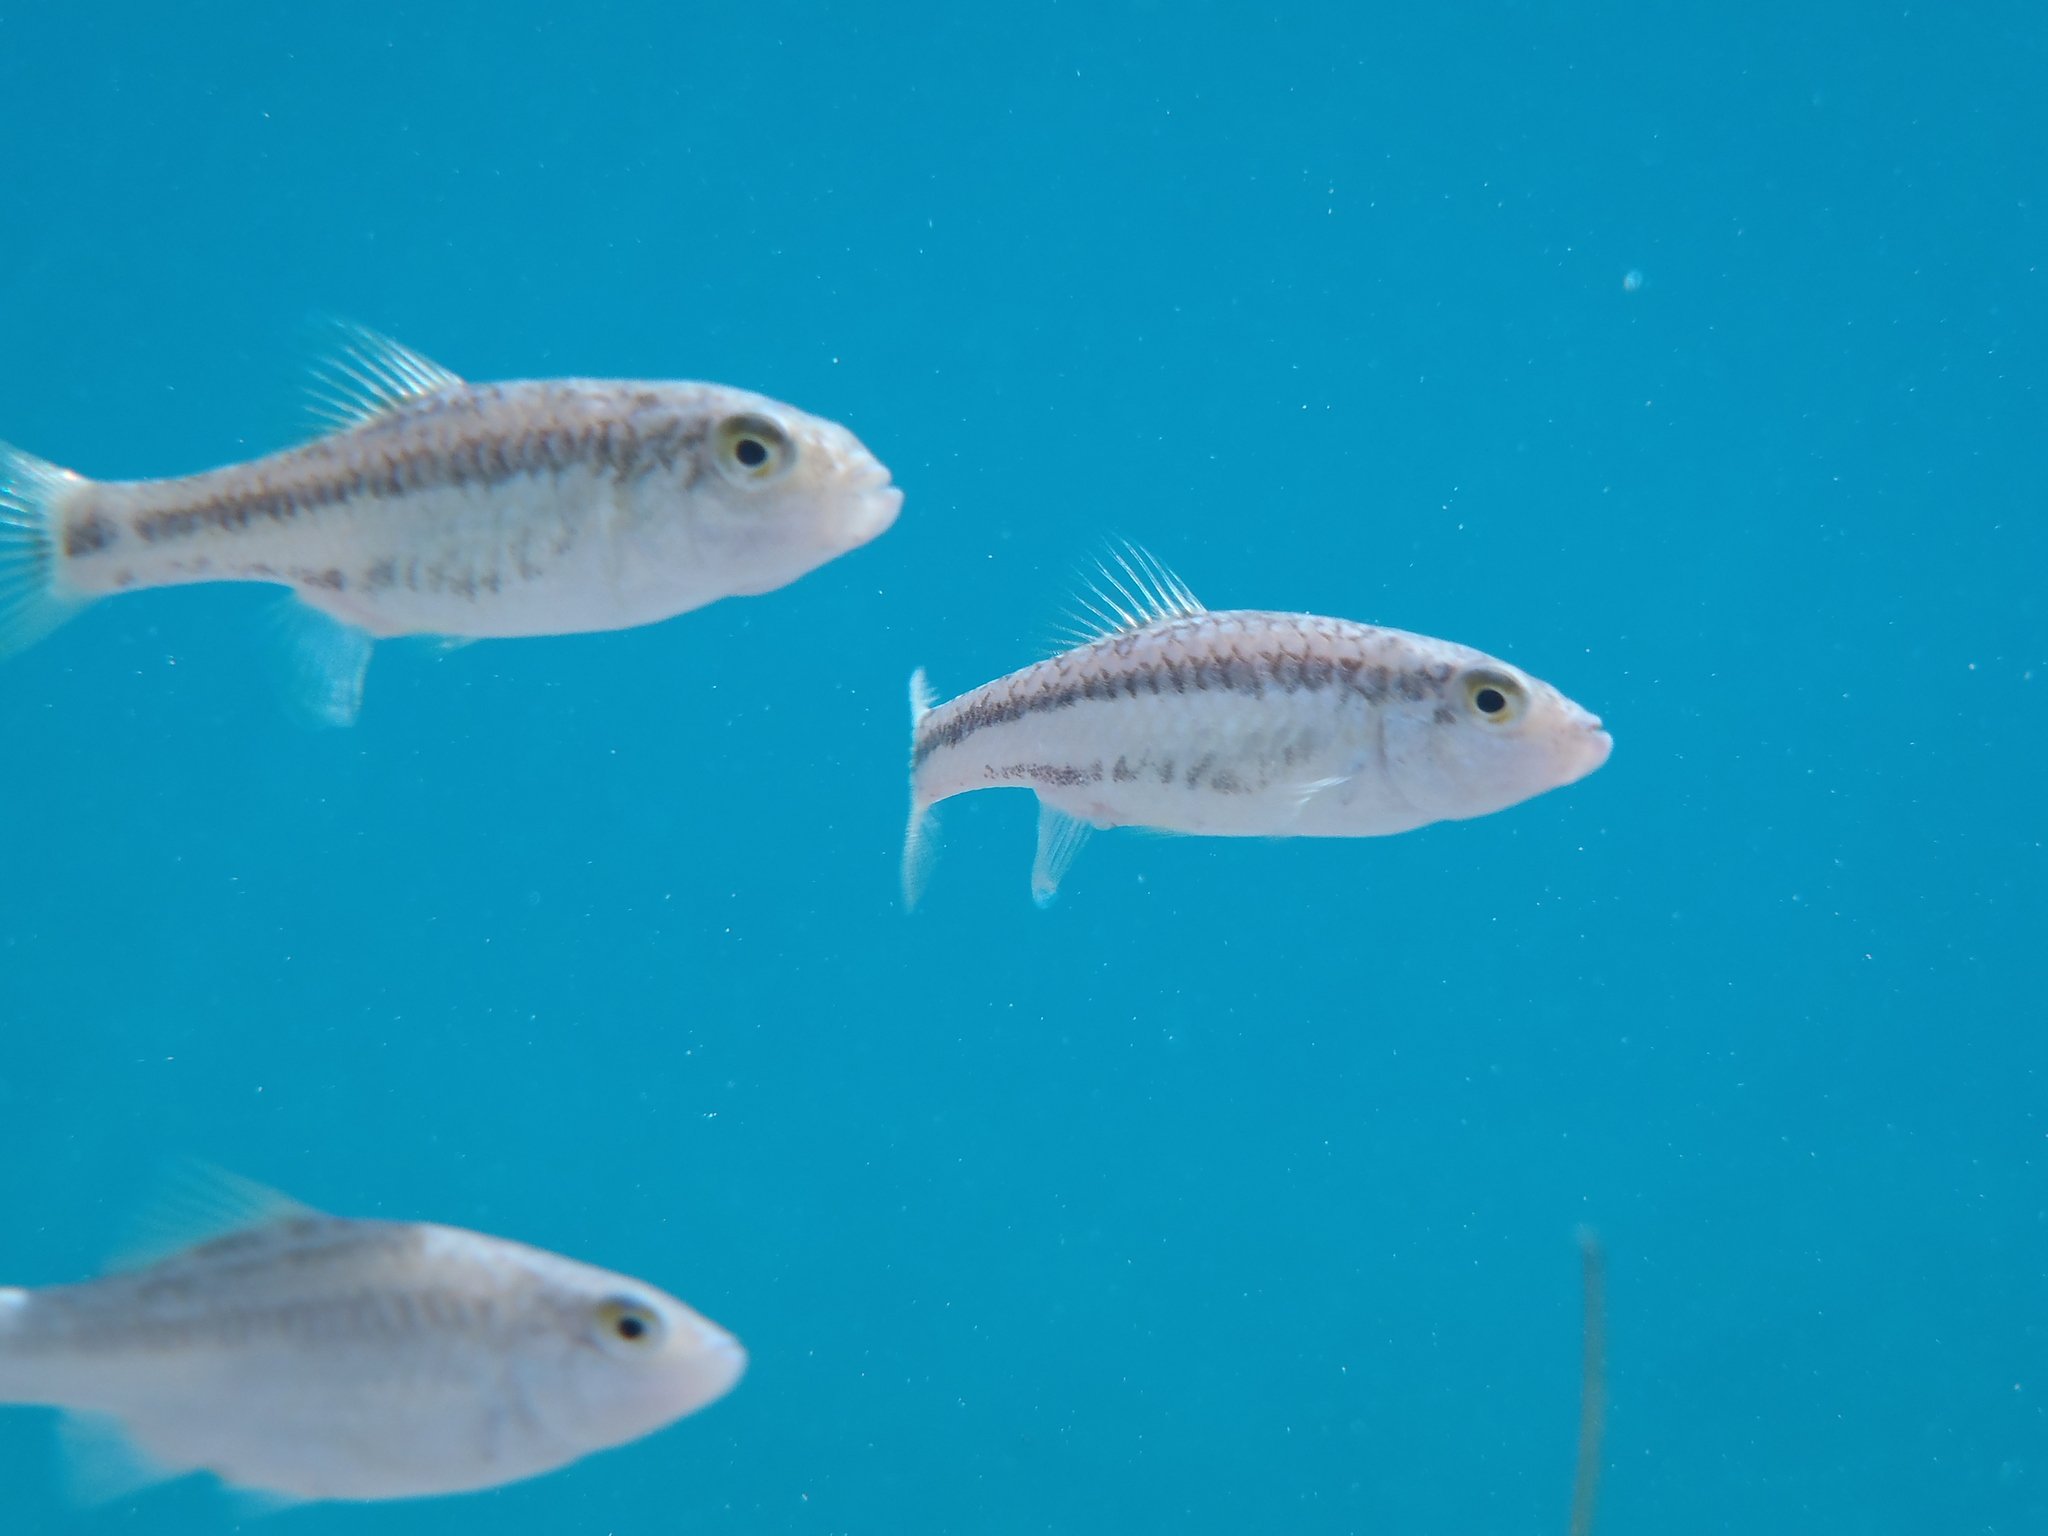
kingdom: Animalia
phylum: Chordata
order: Cyprinodontiformes
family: Cyprinodontidae
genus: Cyprinodon
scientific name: Cyprinodon bifasciatus
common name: Cuatro cienegas pupfish
